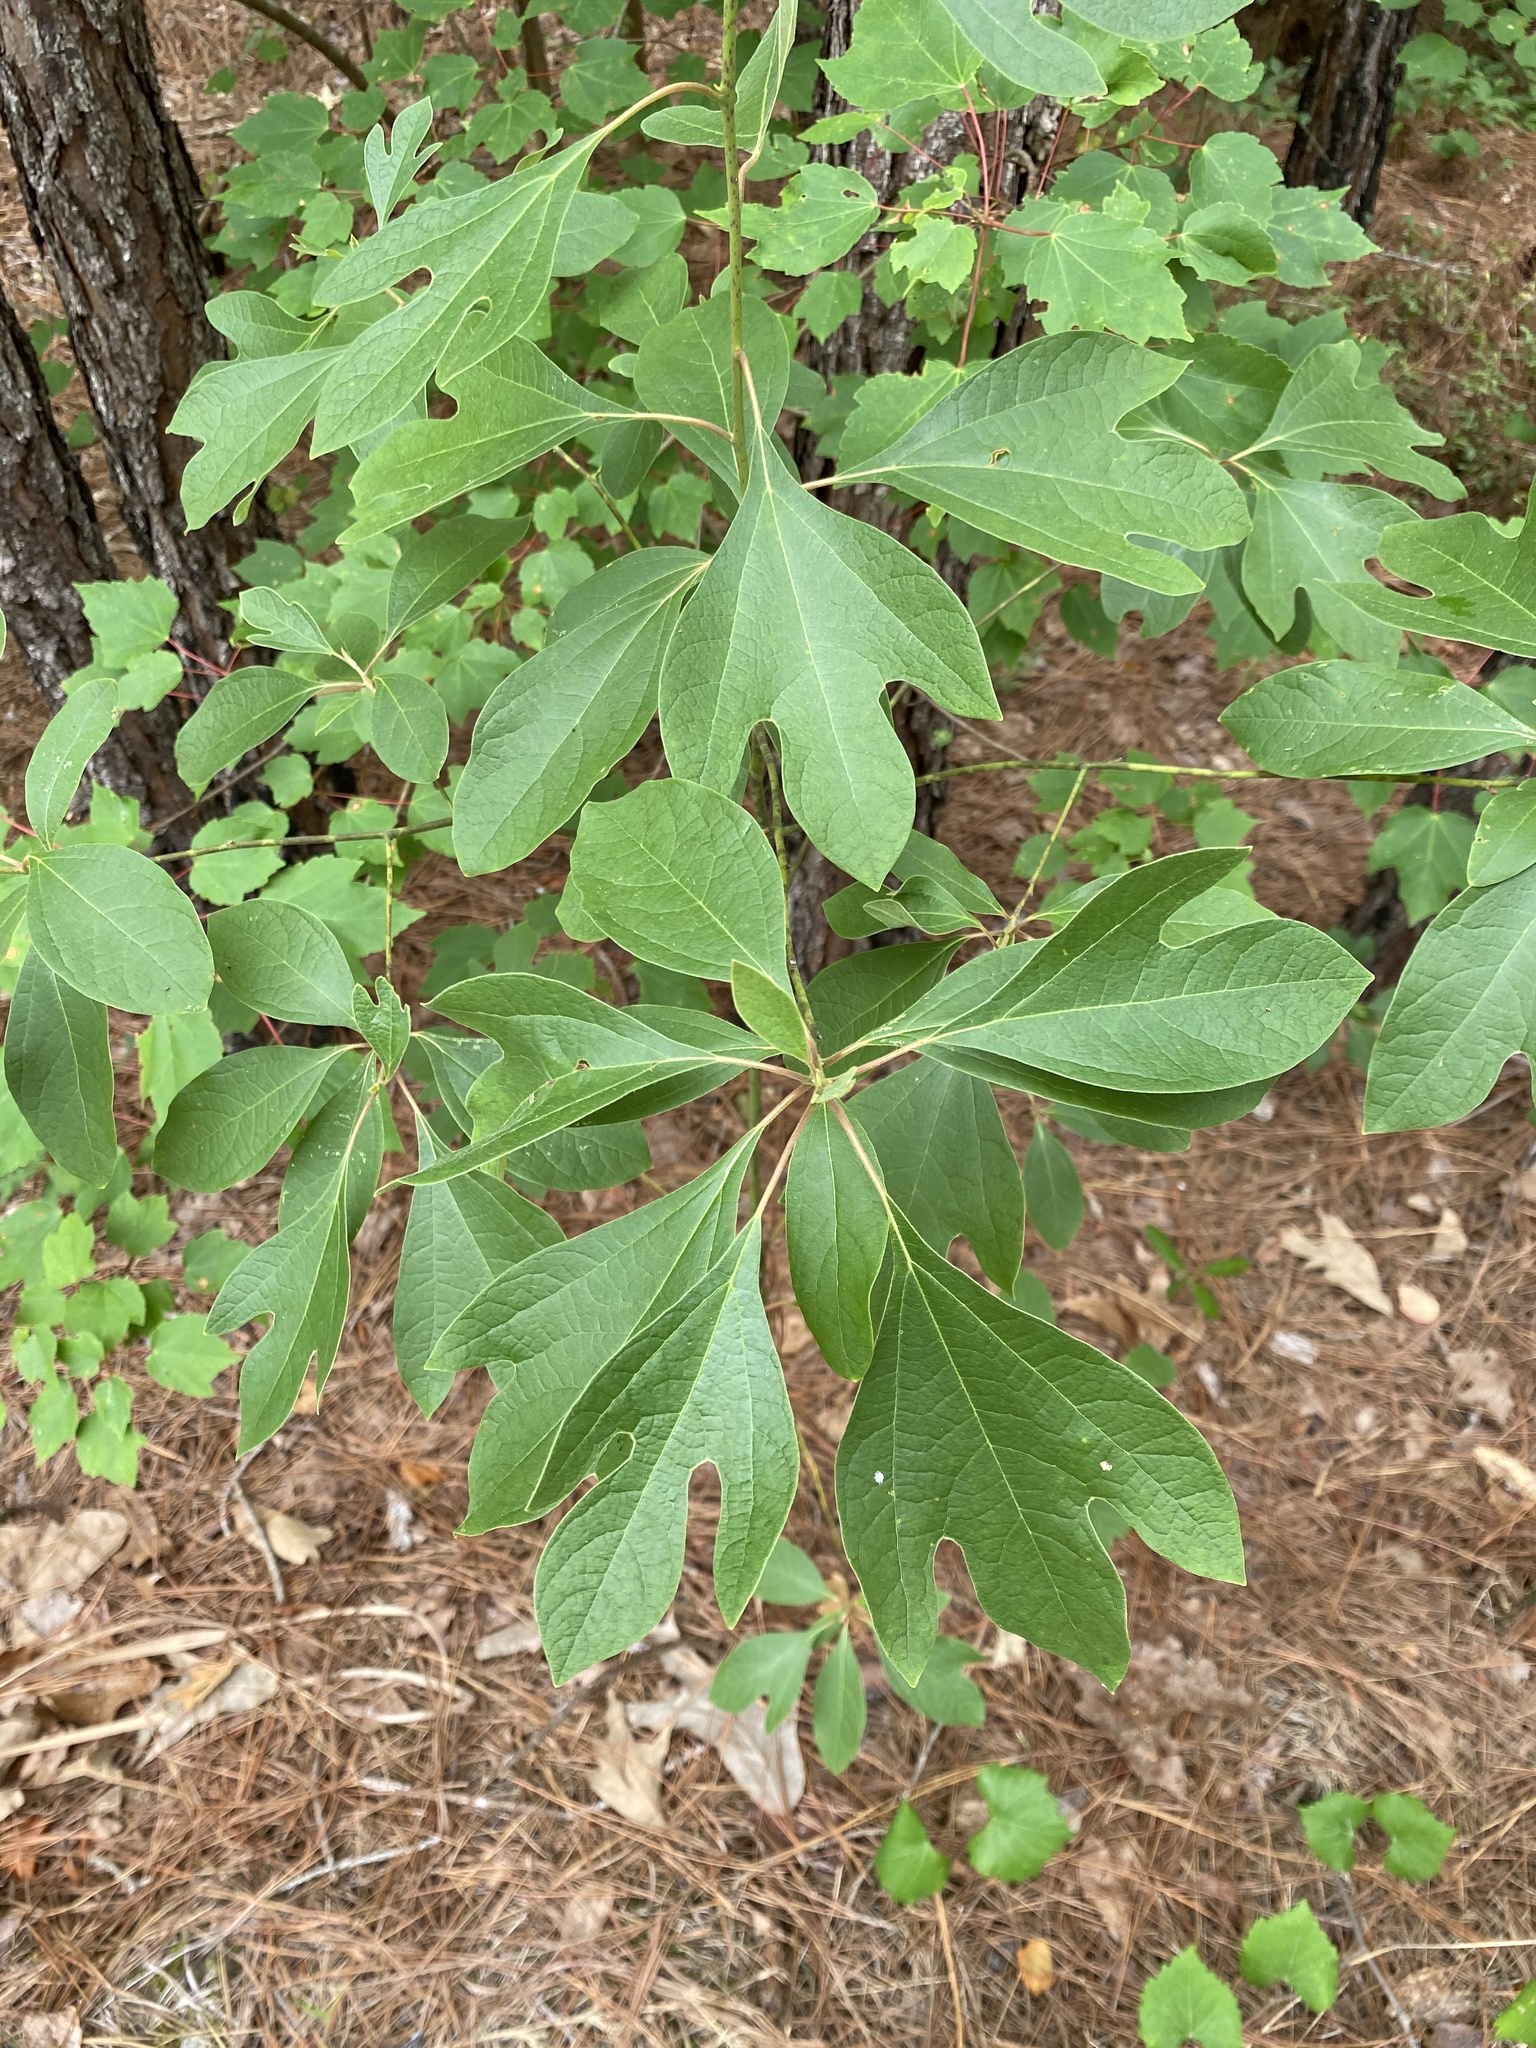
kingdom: Plantae
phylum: Tracheophyta
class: Magnoliopsida
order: Laurales
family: Lauraceae
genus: Sassafras
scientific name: Sassafras albidum
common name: Sassafras
